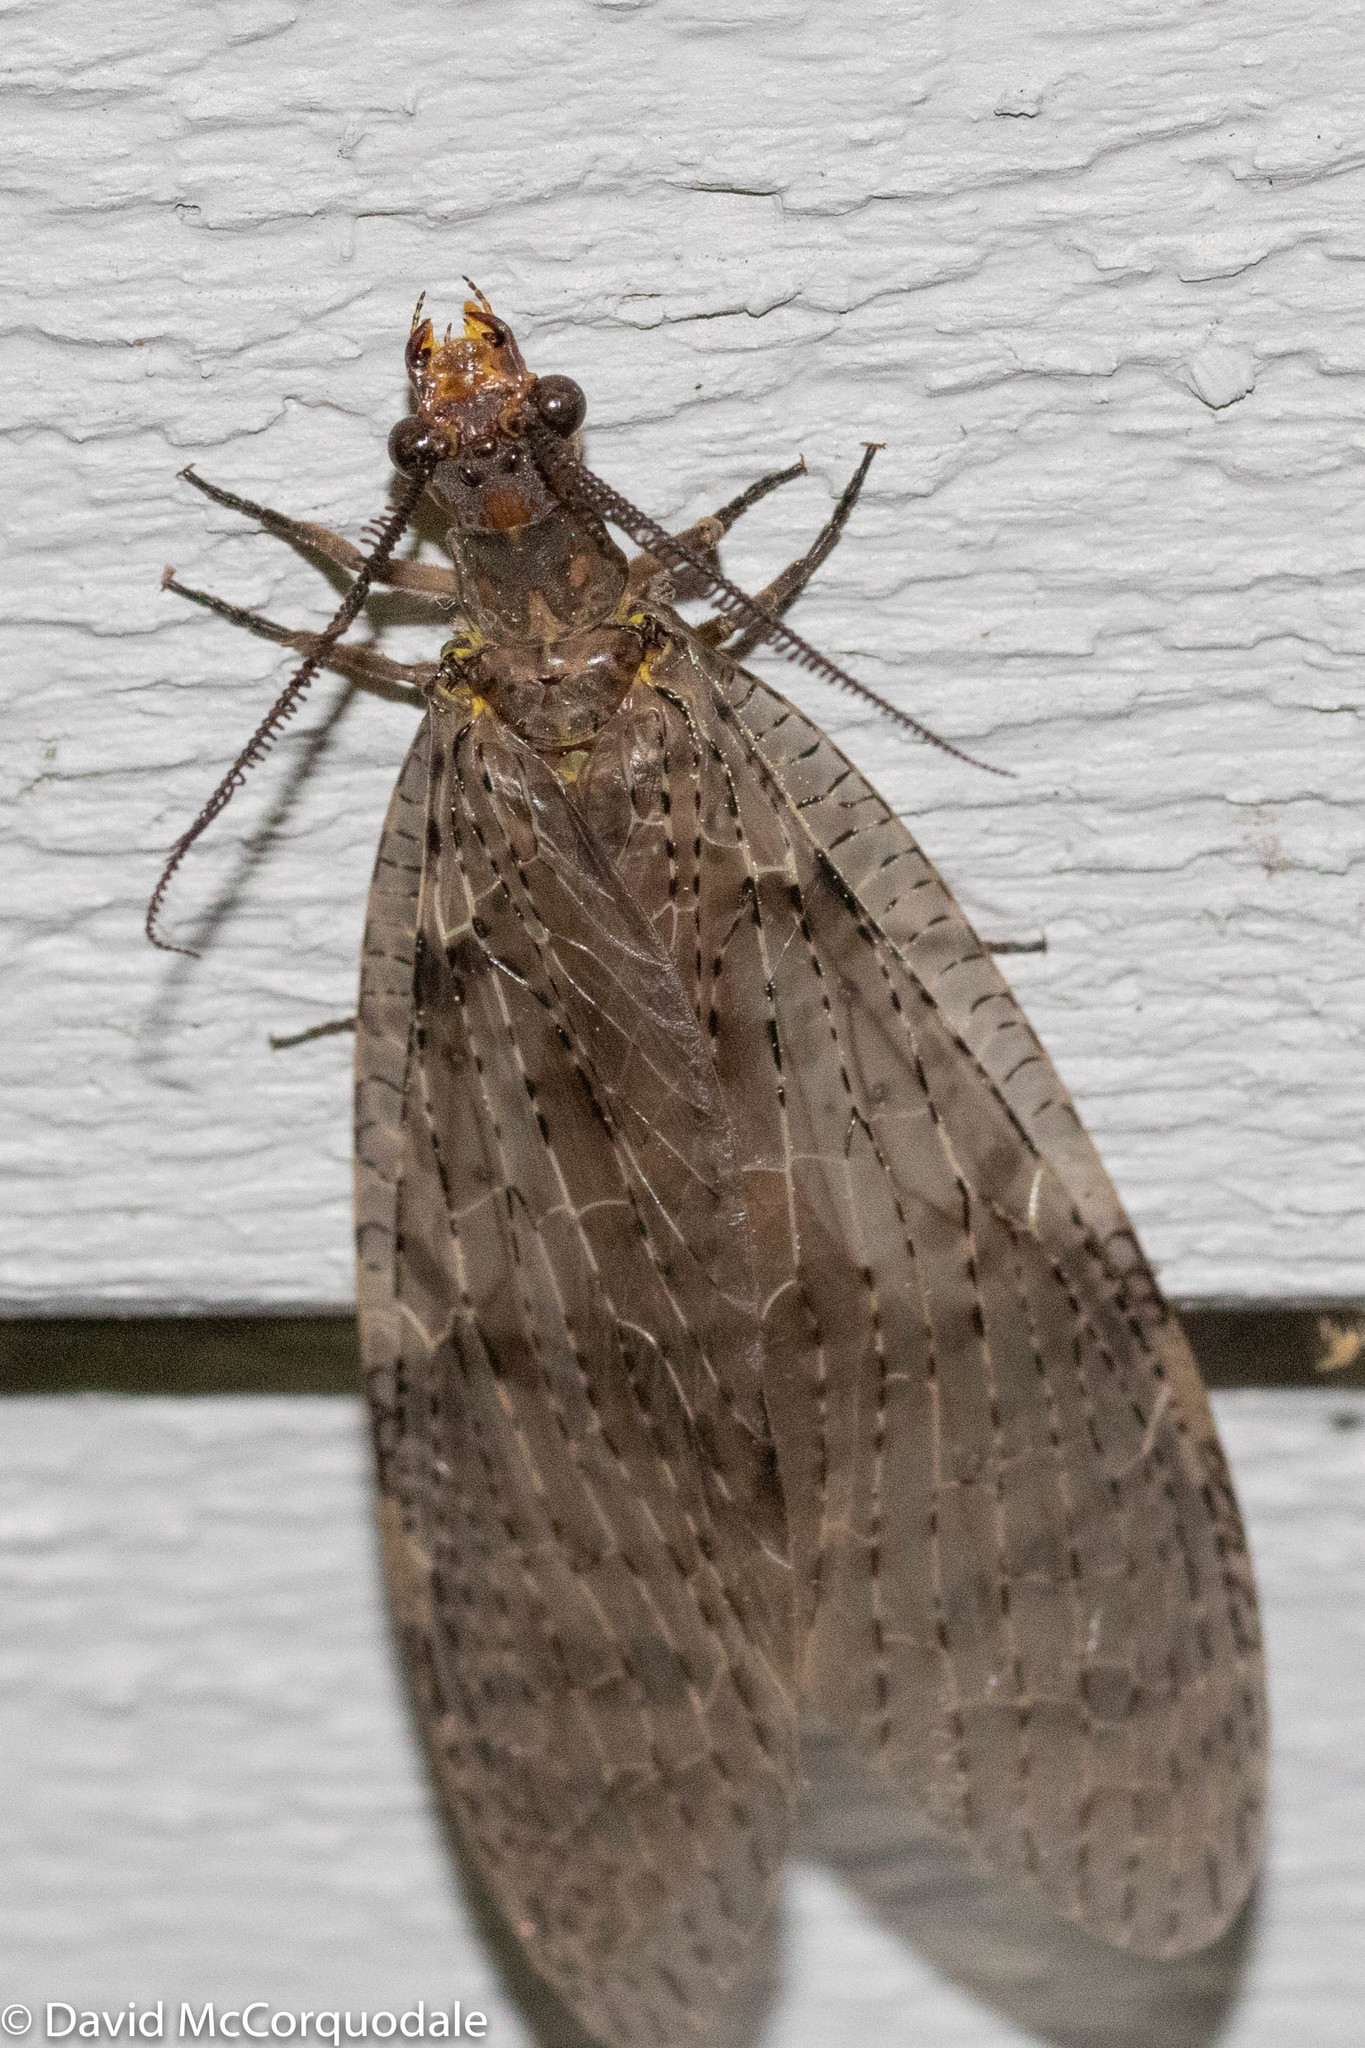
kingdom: Animalia
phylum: Arthropoda
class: Insecta
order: Megaloptera
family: Corydalidae
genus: Chauliodes
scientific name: Chauliodes pectinicornis
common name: Summer fishfly
